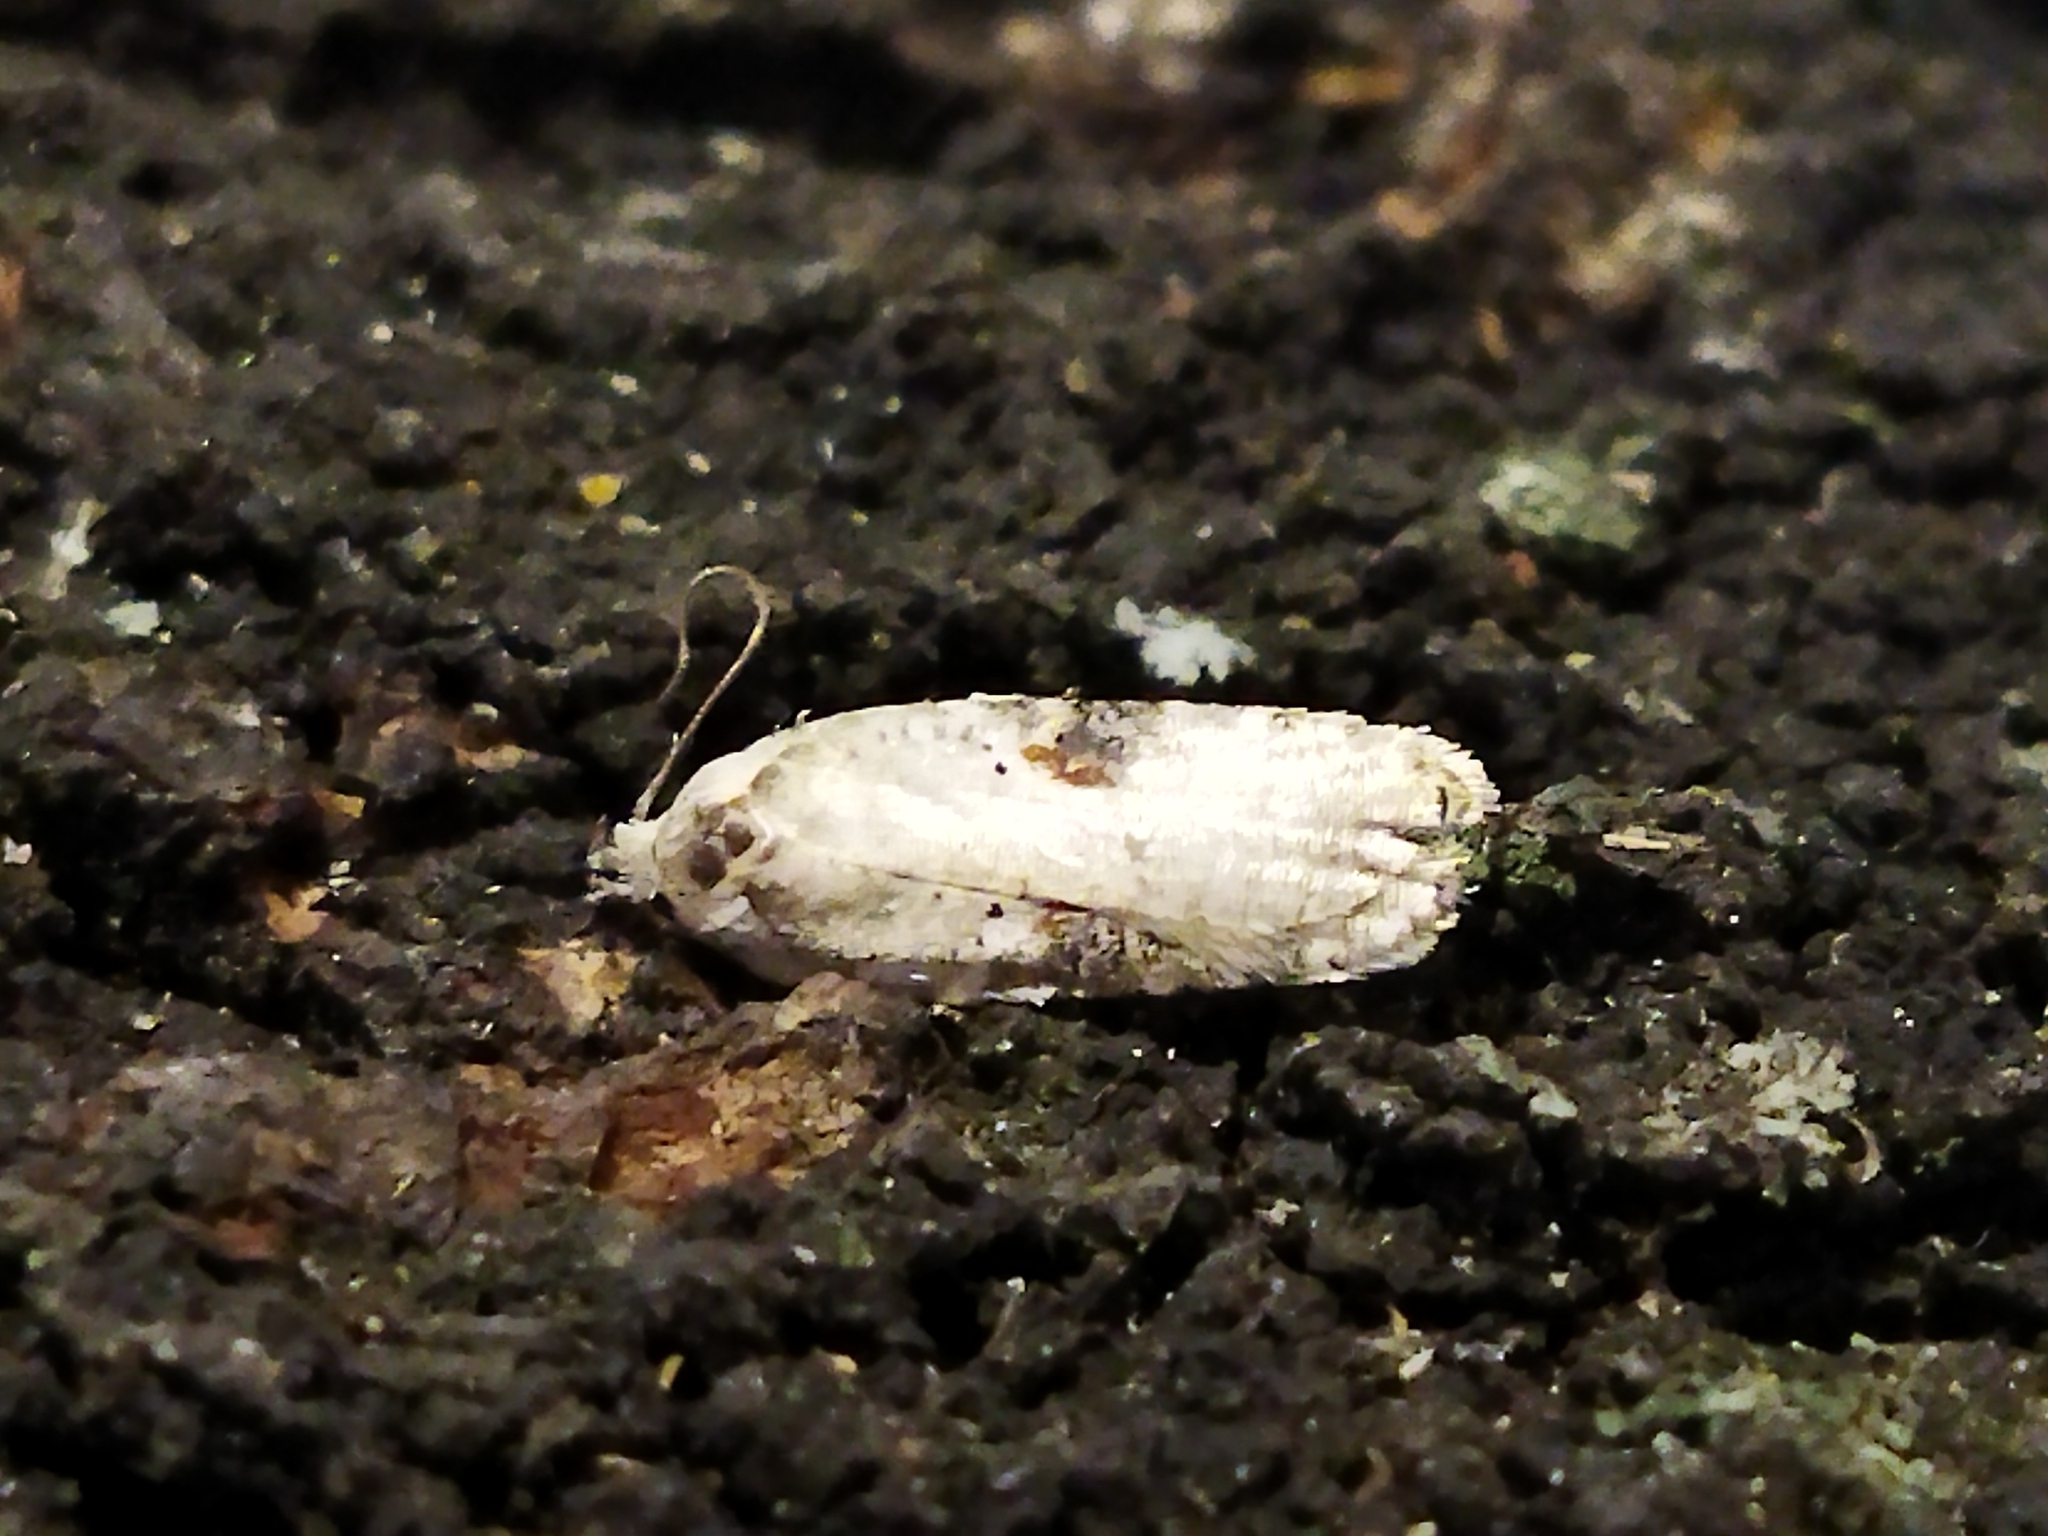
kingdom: Animalia
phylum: Arthropoda
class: Insecta
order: Lepidoptera
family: Depressariidae
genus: Agonopterix
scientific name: Agonopterix alstroemeriana
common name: Moth
